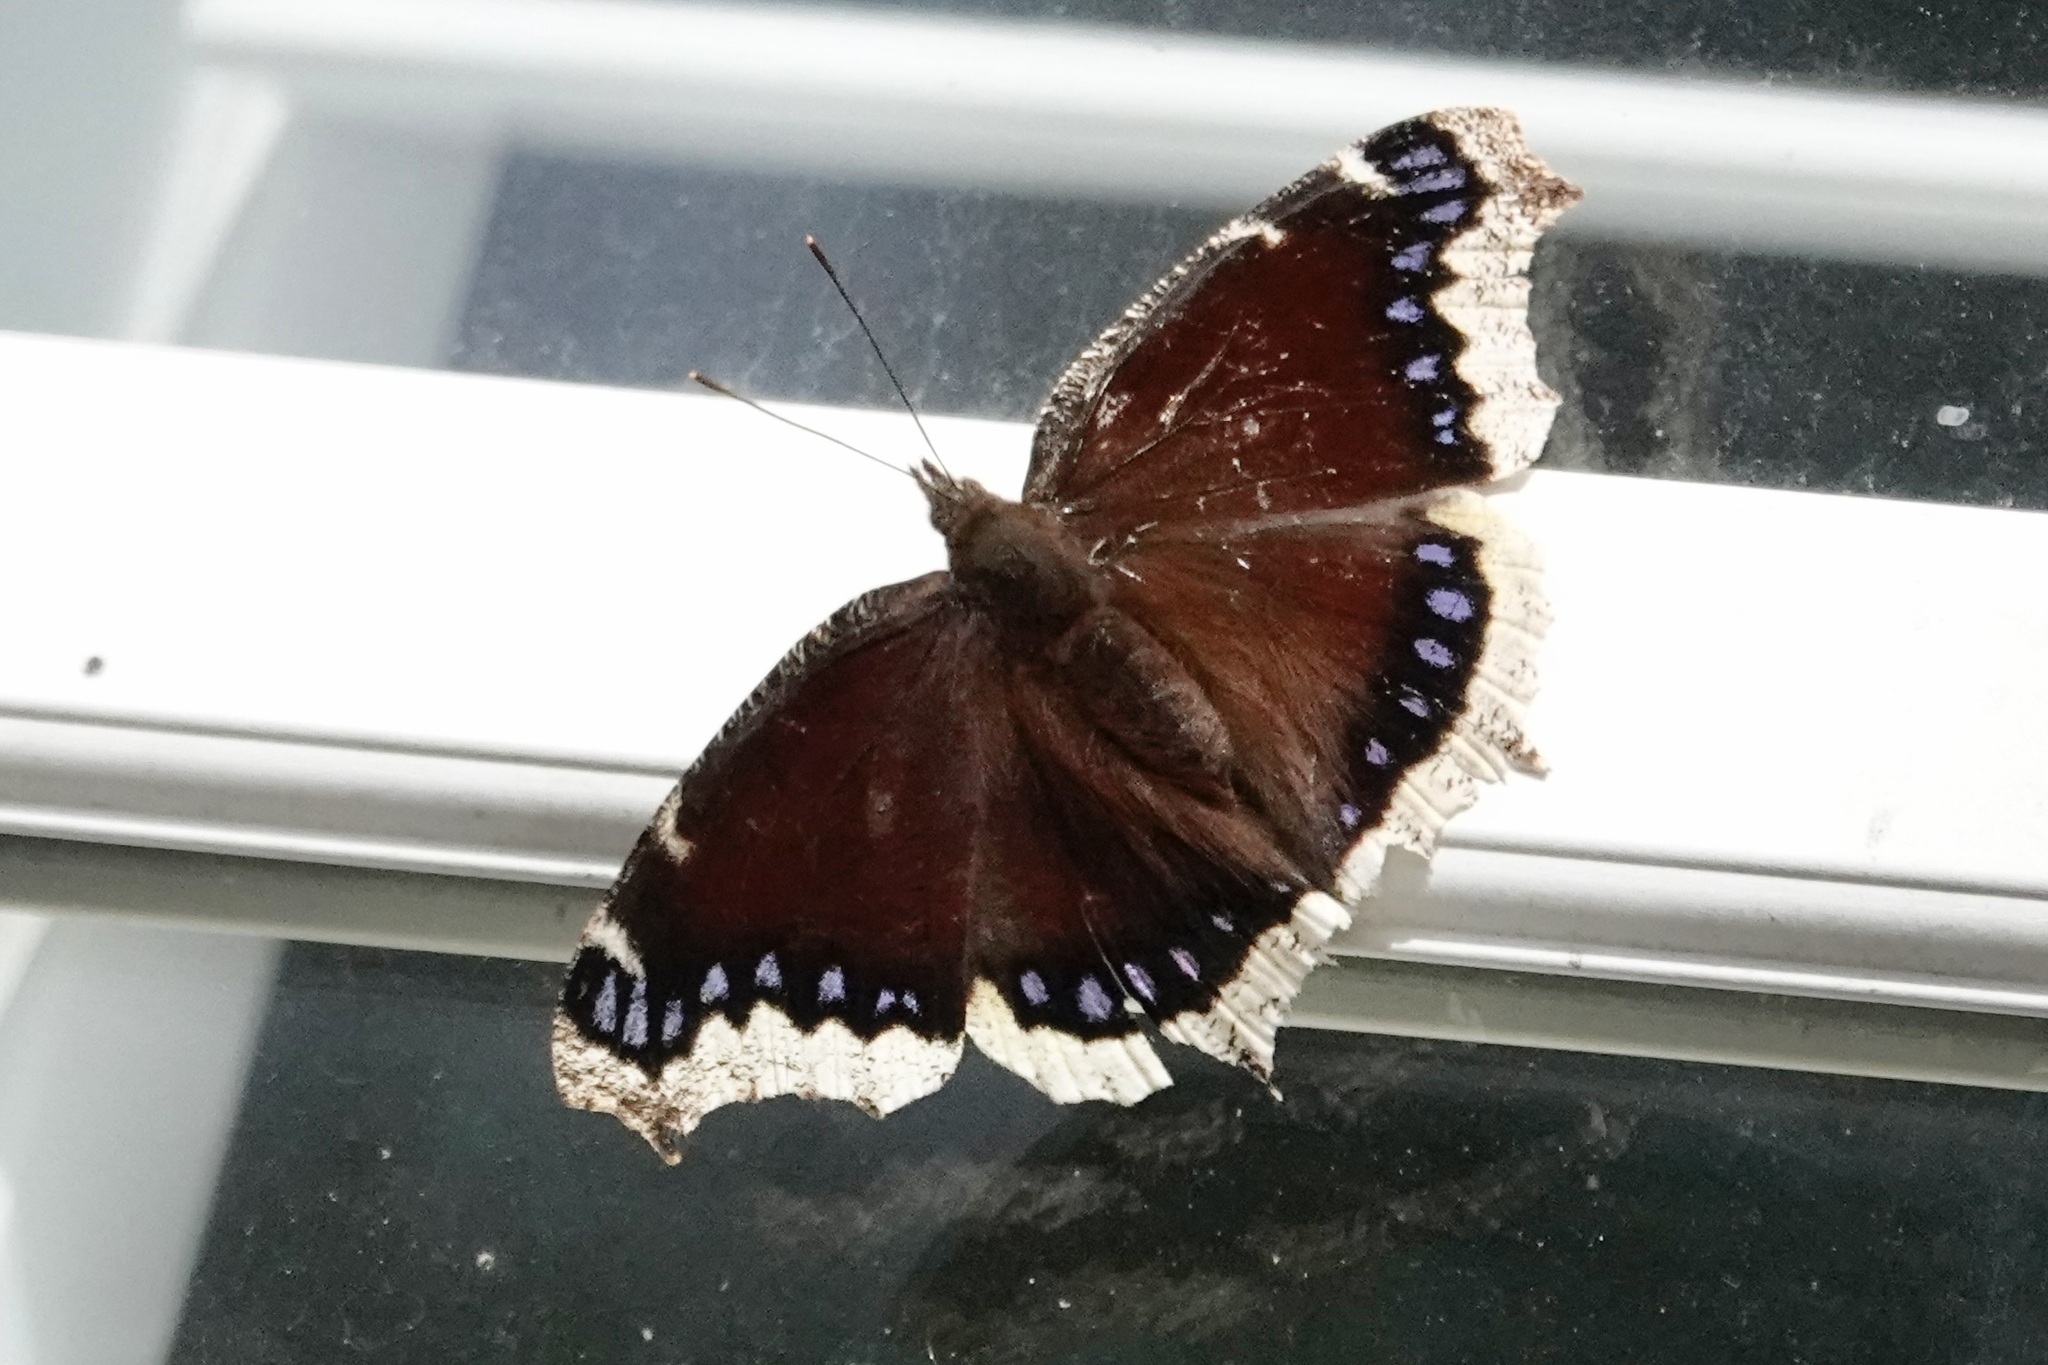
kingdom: Animalia
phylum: Arthropoda
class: Insecta
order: Lepidoptera
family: Nymphalidae
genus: Nymphalis
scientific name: Nymphalis antiopa
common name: Camberwell beauty
